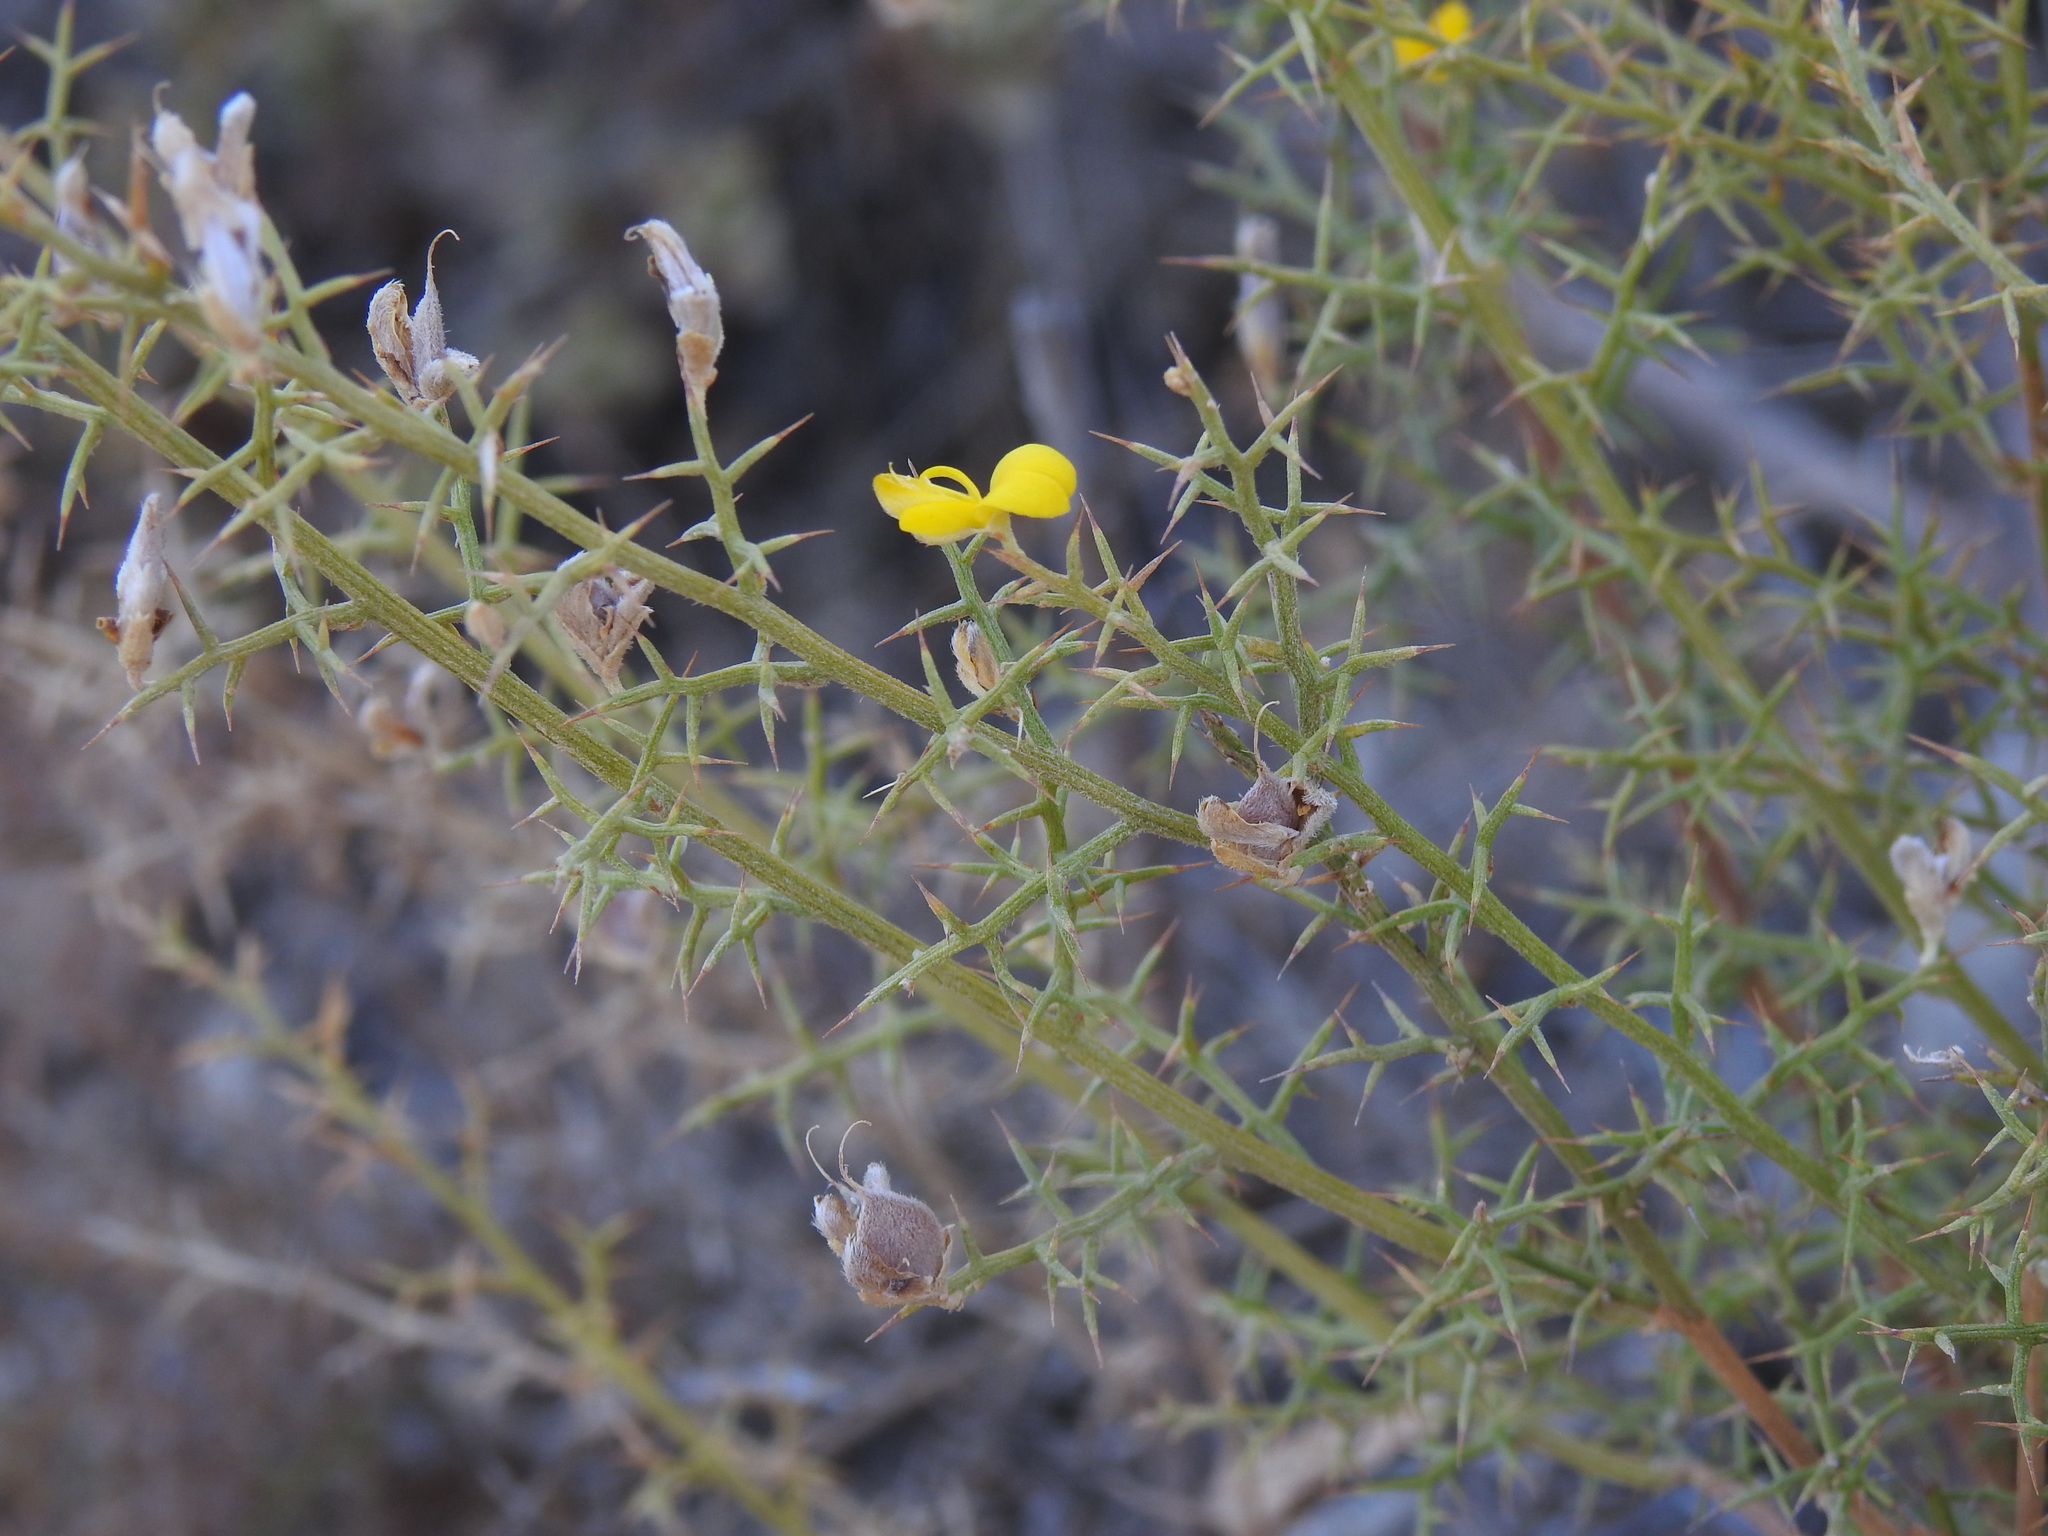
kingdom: Plantae
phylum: Tracheophyta
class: Magnoliopsida
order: Fabales
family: Fabaceae
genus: Stauracanthus
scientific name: Stauracanthus boivinii
